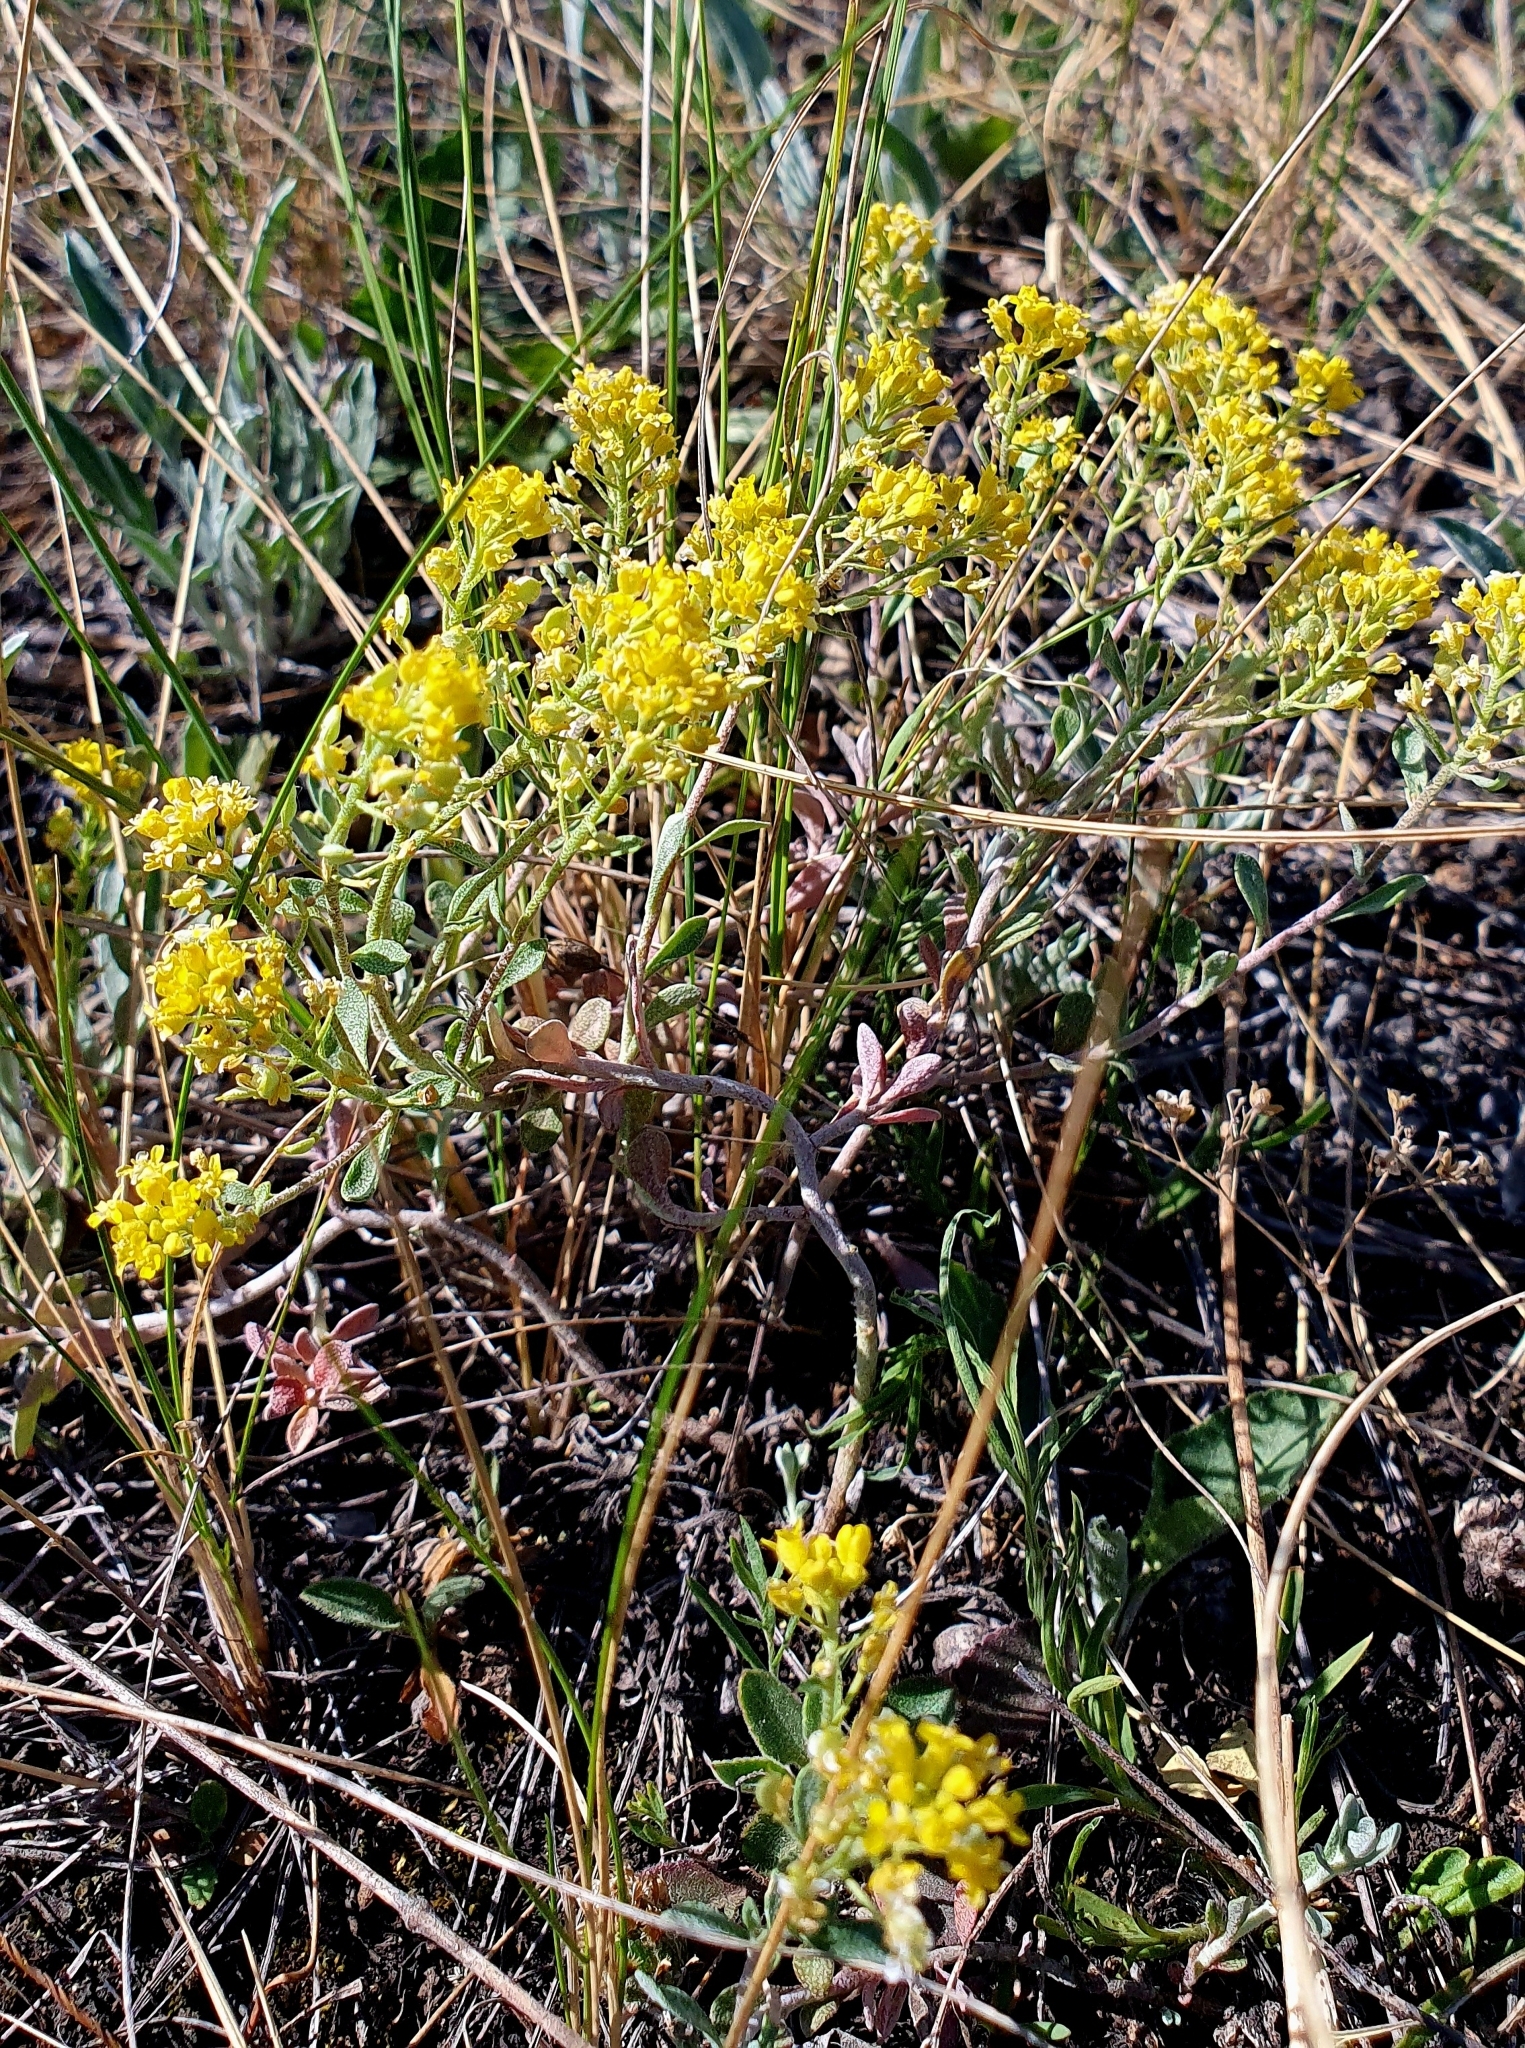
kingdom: Plantae
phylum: Tracheophyta
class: Magnoliopsida
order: Brassicales
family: Brassicaceae
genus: Odontarrhena
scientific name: Odontarrhena tortuosa
